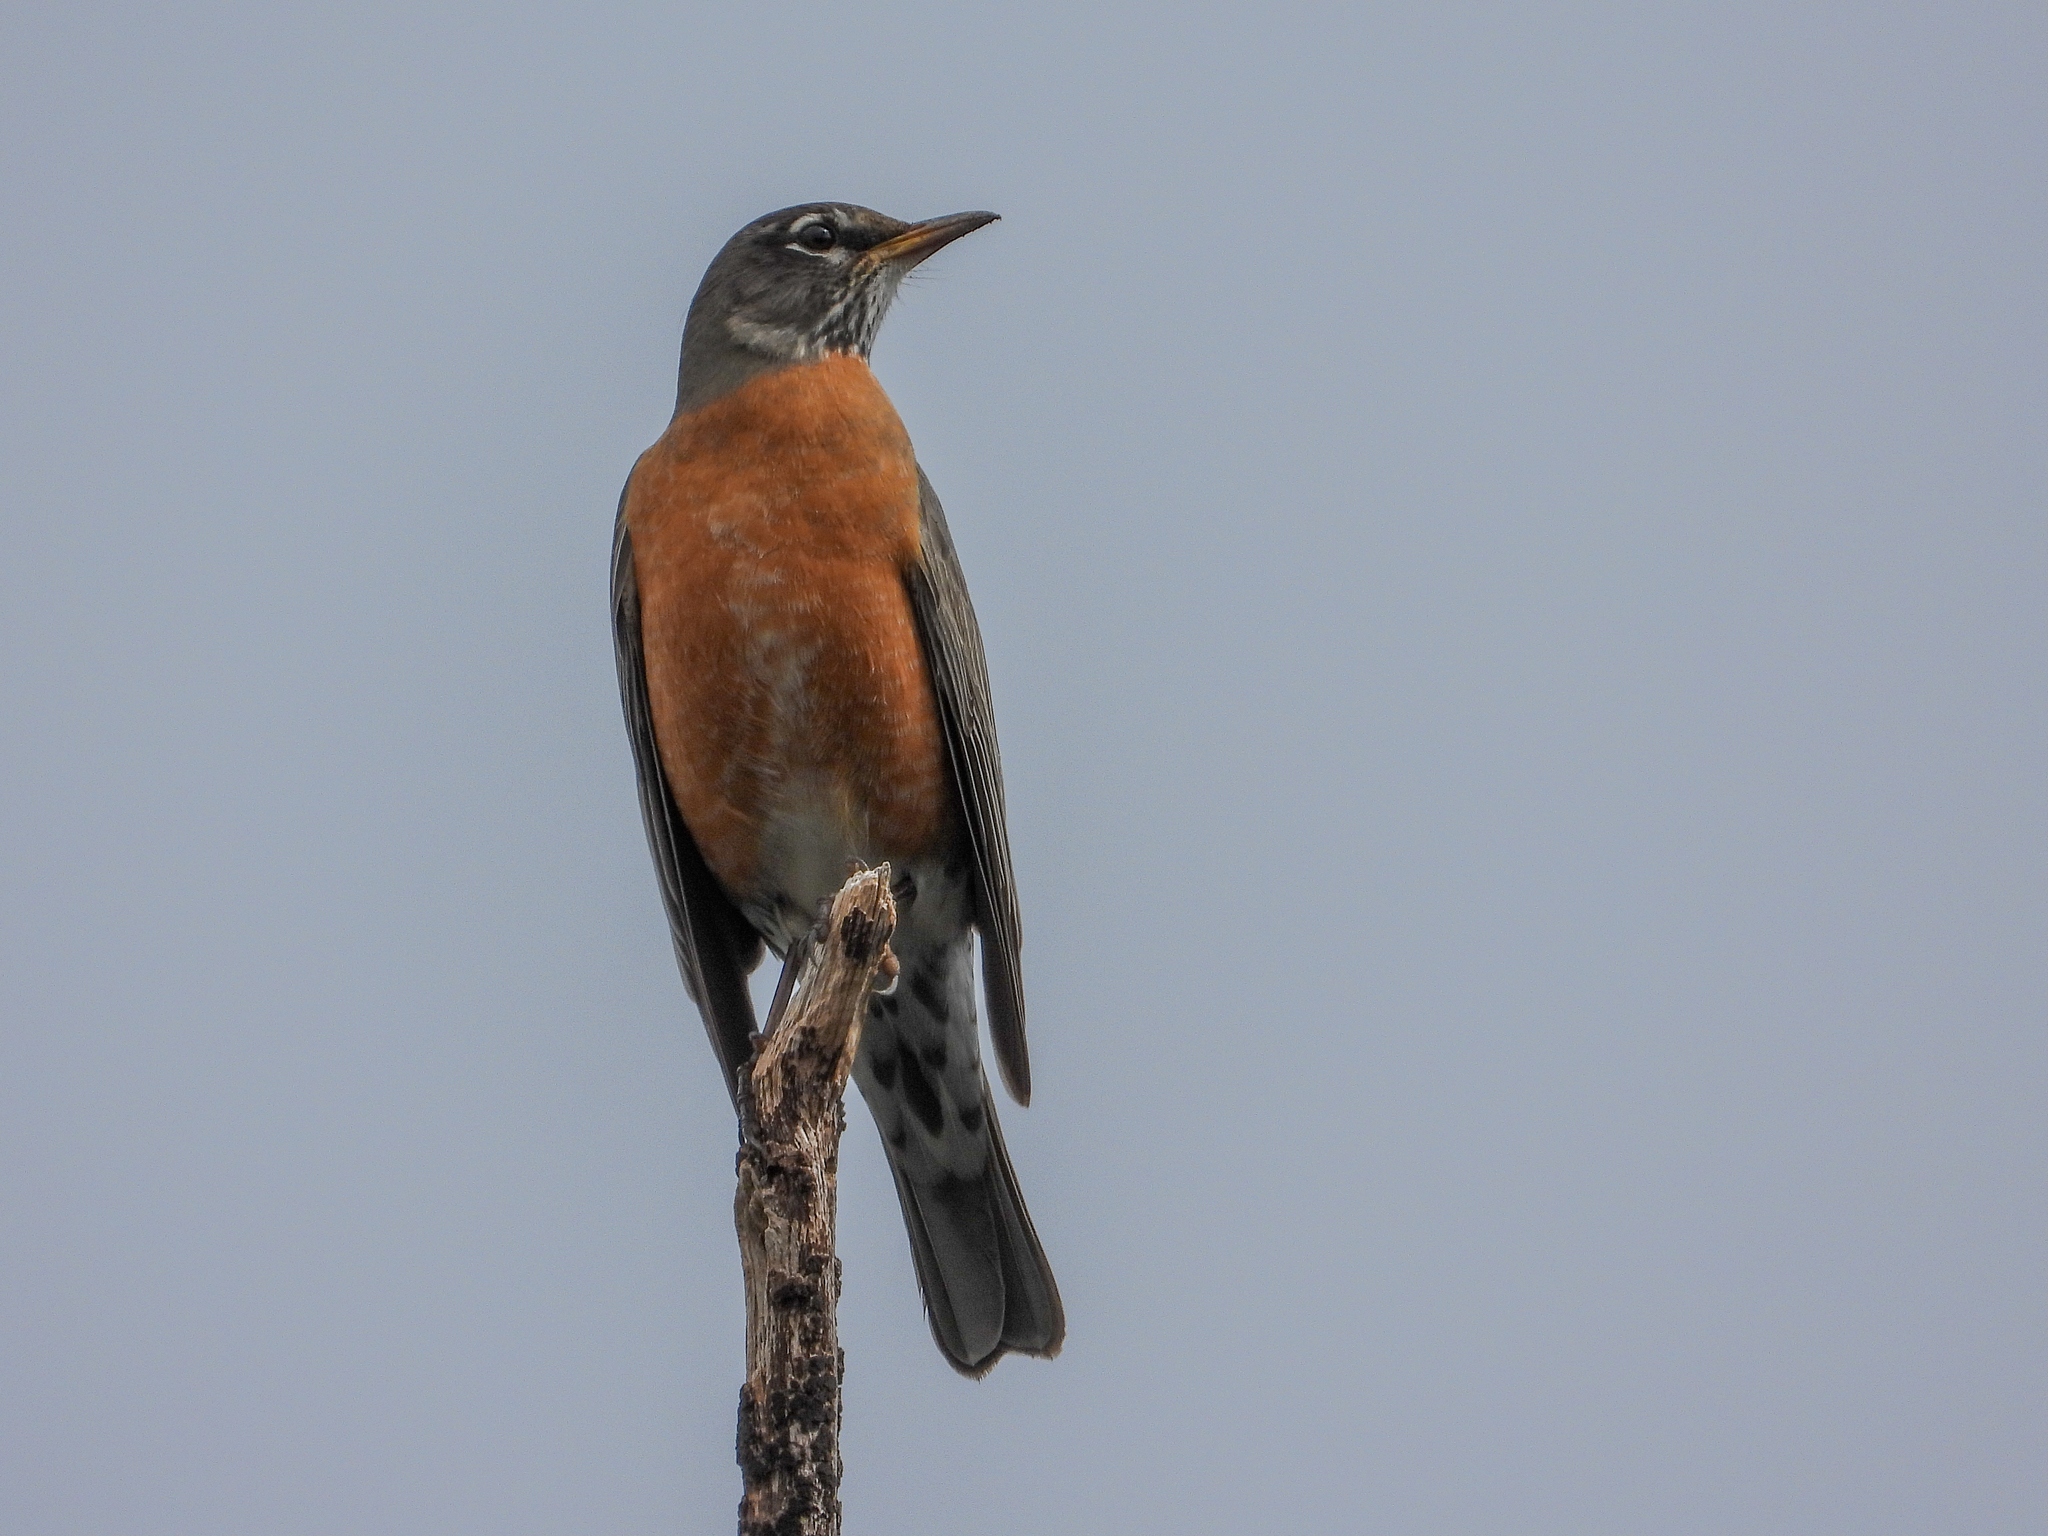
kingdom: Animalia
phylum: Chordata
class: Aves
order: Passeriformes
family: Turdidae
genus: Turdus
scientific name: Turdus migratorius
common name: American robin
